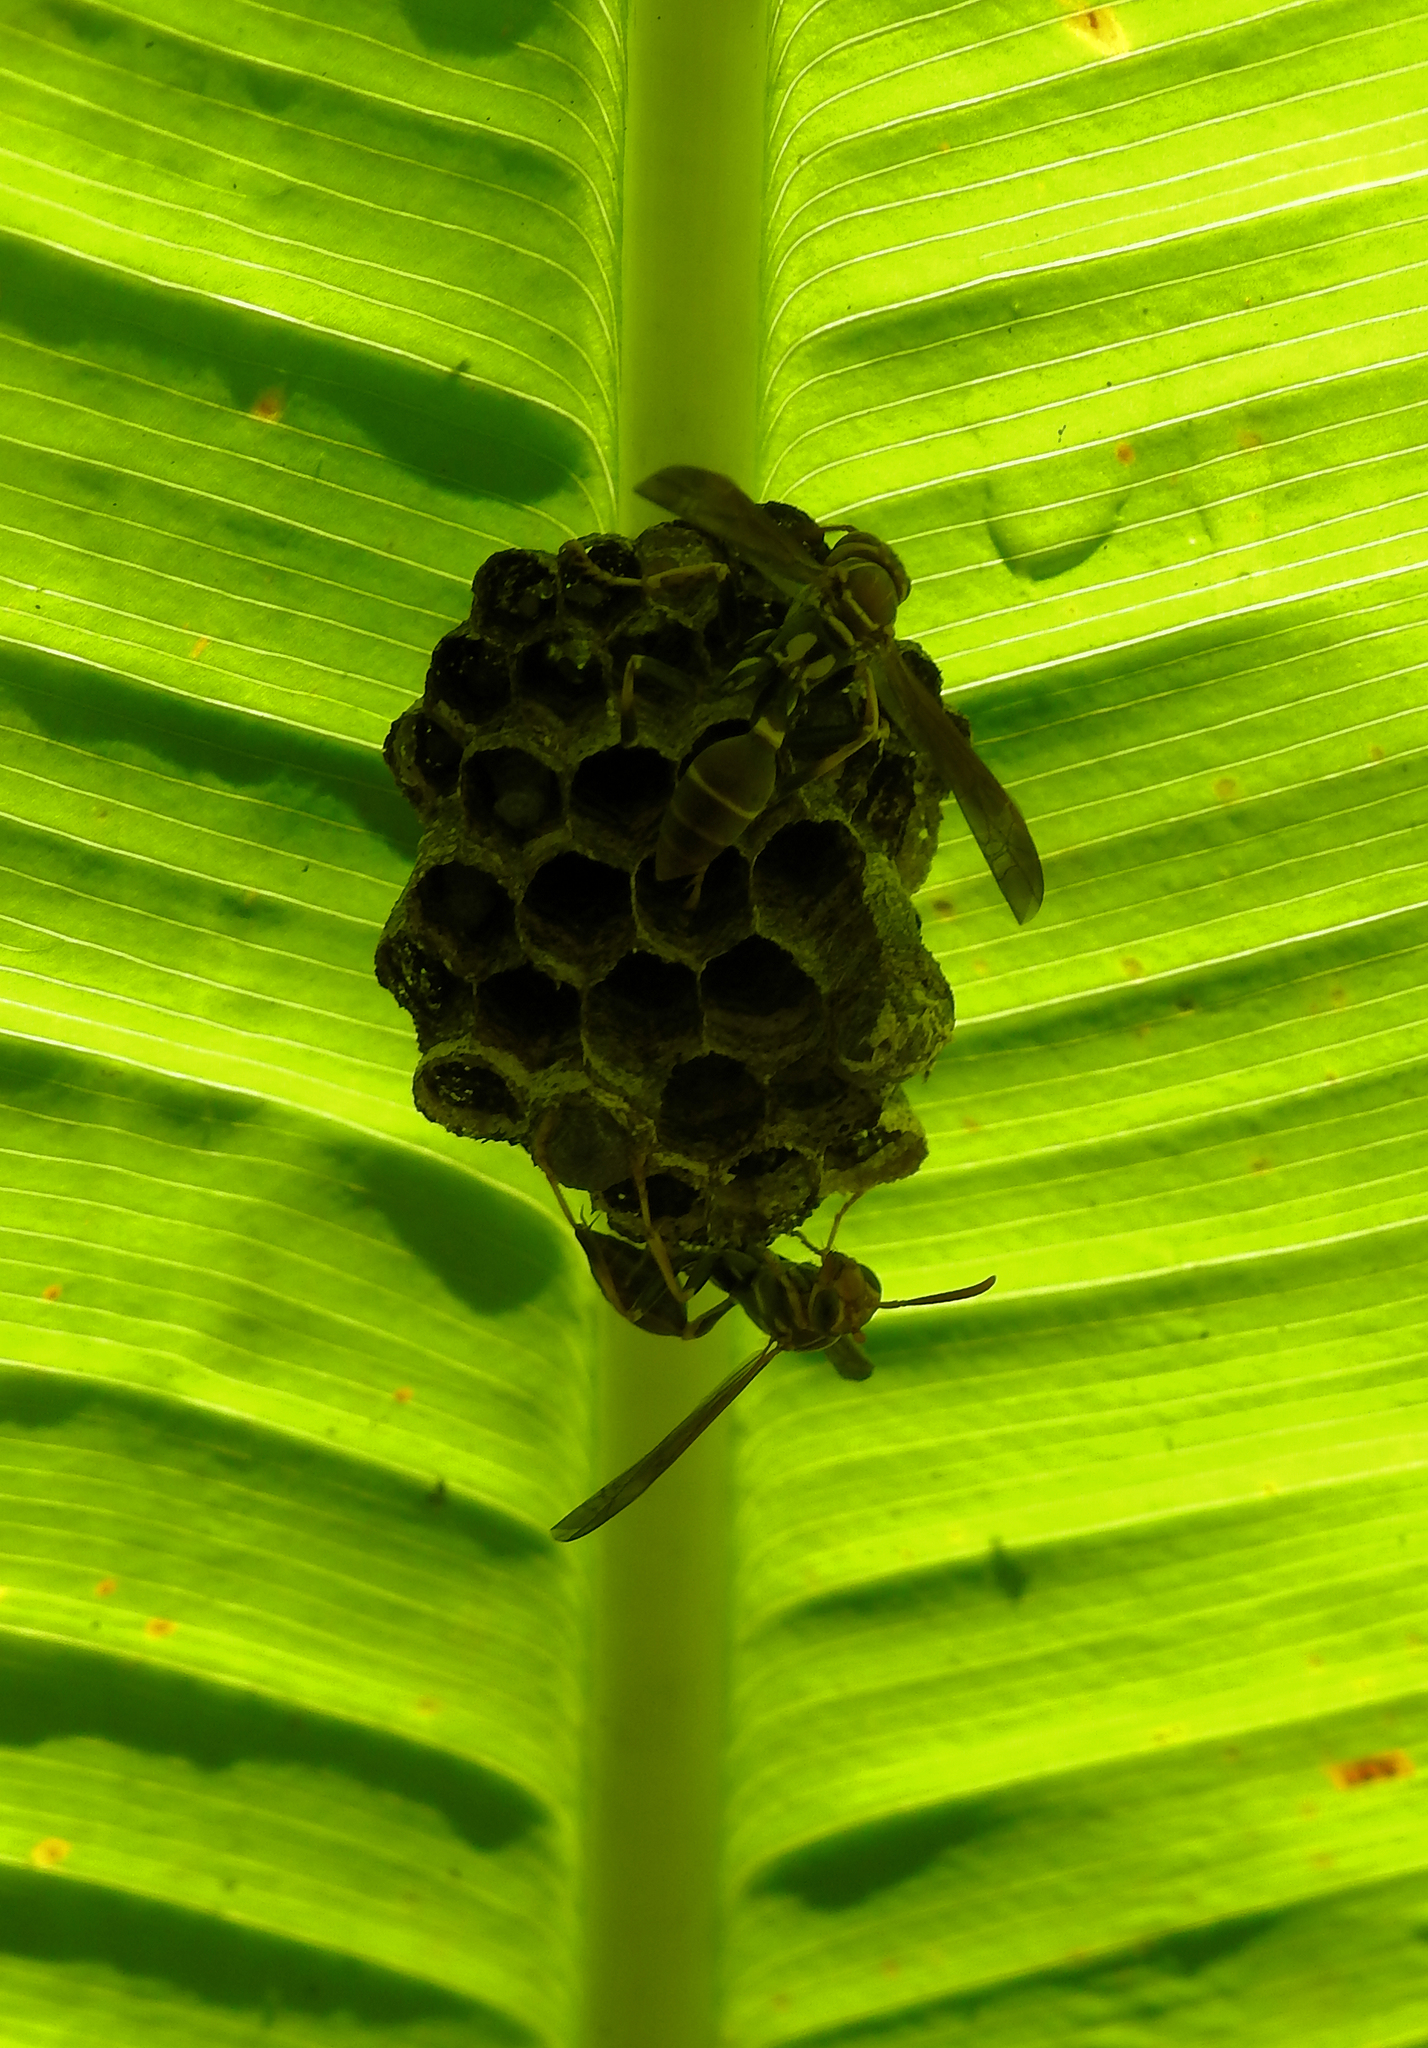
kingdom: Animalia
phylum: Arthropoda
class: Insecta
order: Hymenoptera
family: Vespidae
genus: Mischocyttarus
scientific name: Mischocyttarus mexicanus
